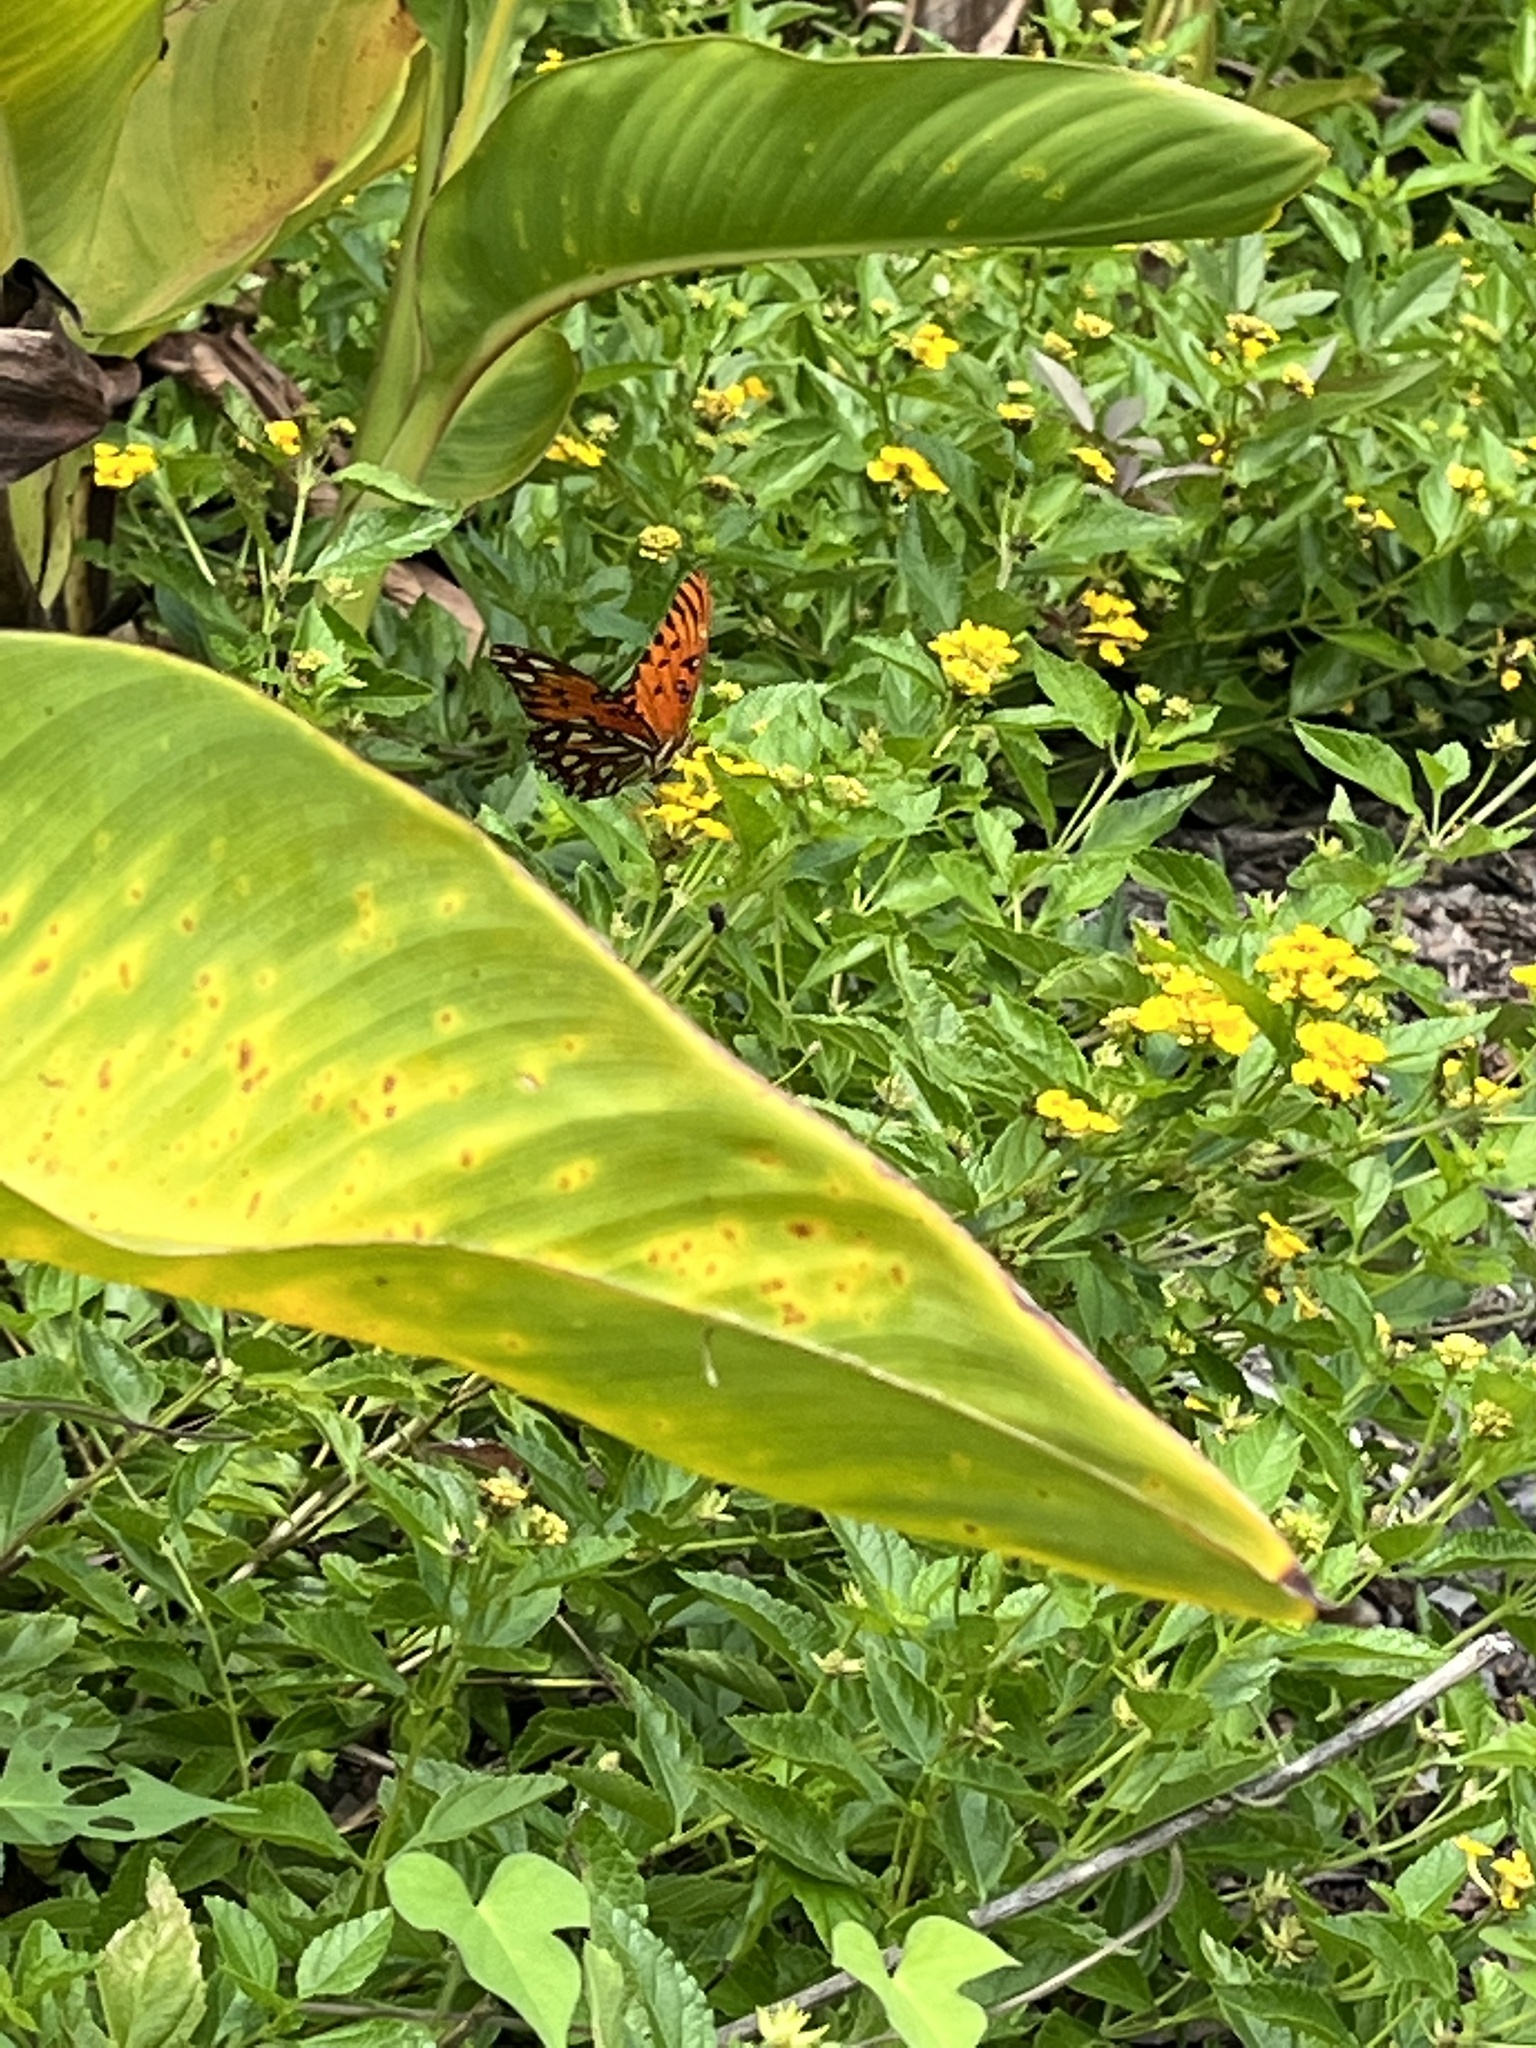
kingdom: Animalia
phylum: Arthropoda
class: Insecta
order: Lepidoptera
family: Nymphalidae
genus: Dione
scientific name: Dione vanillae
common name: Gulf fritillary
